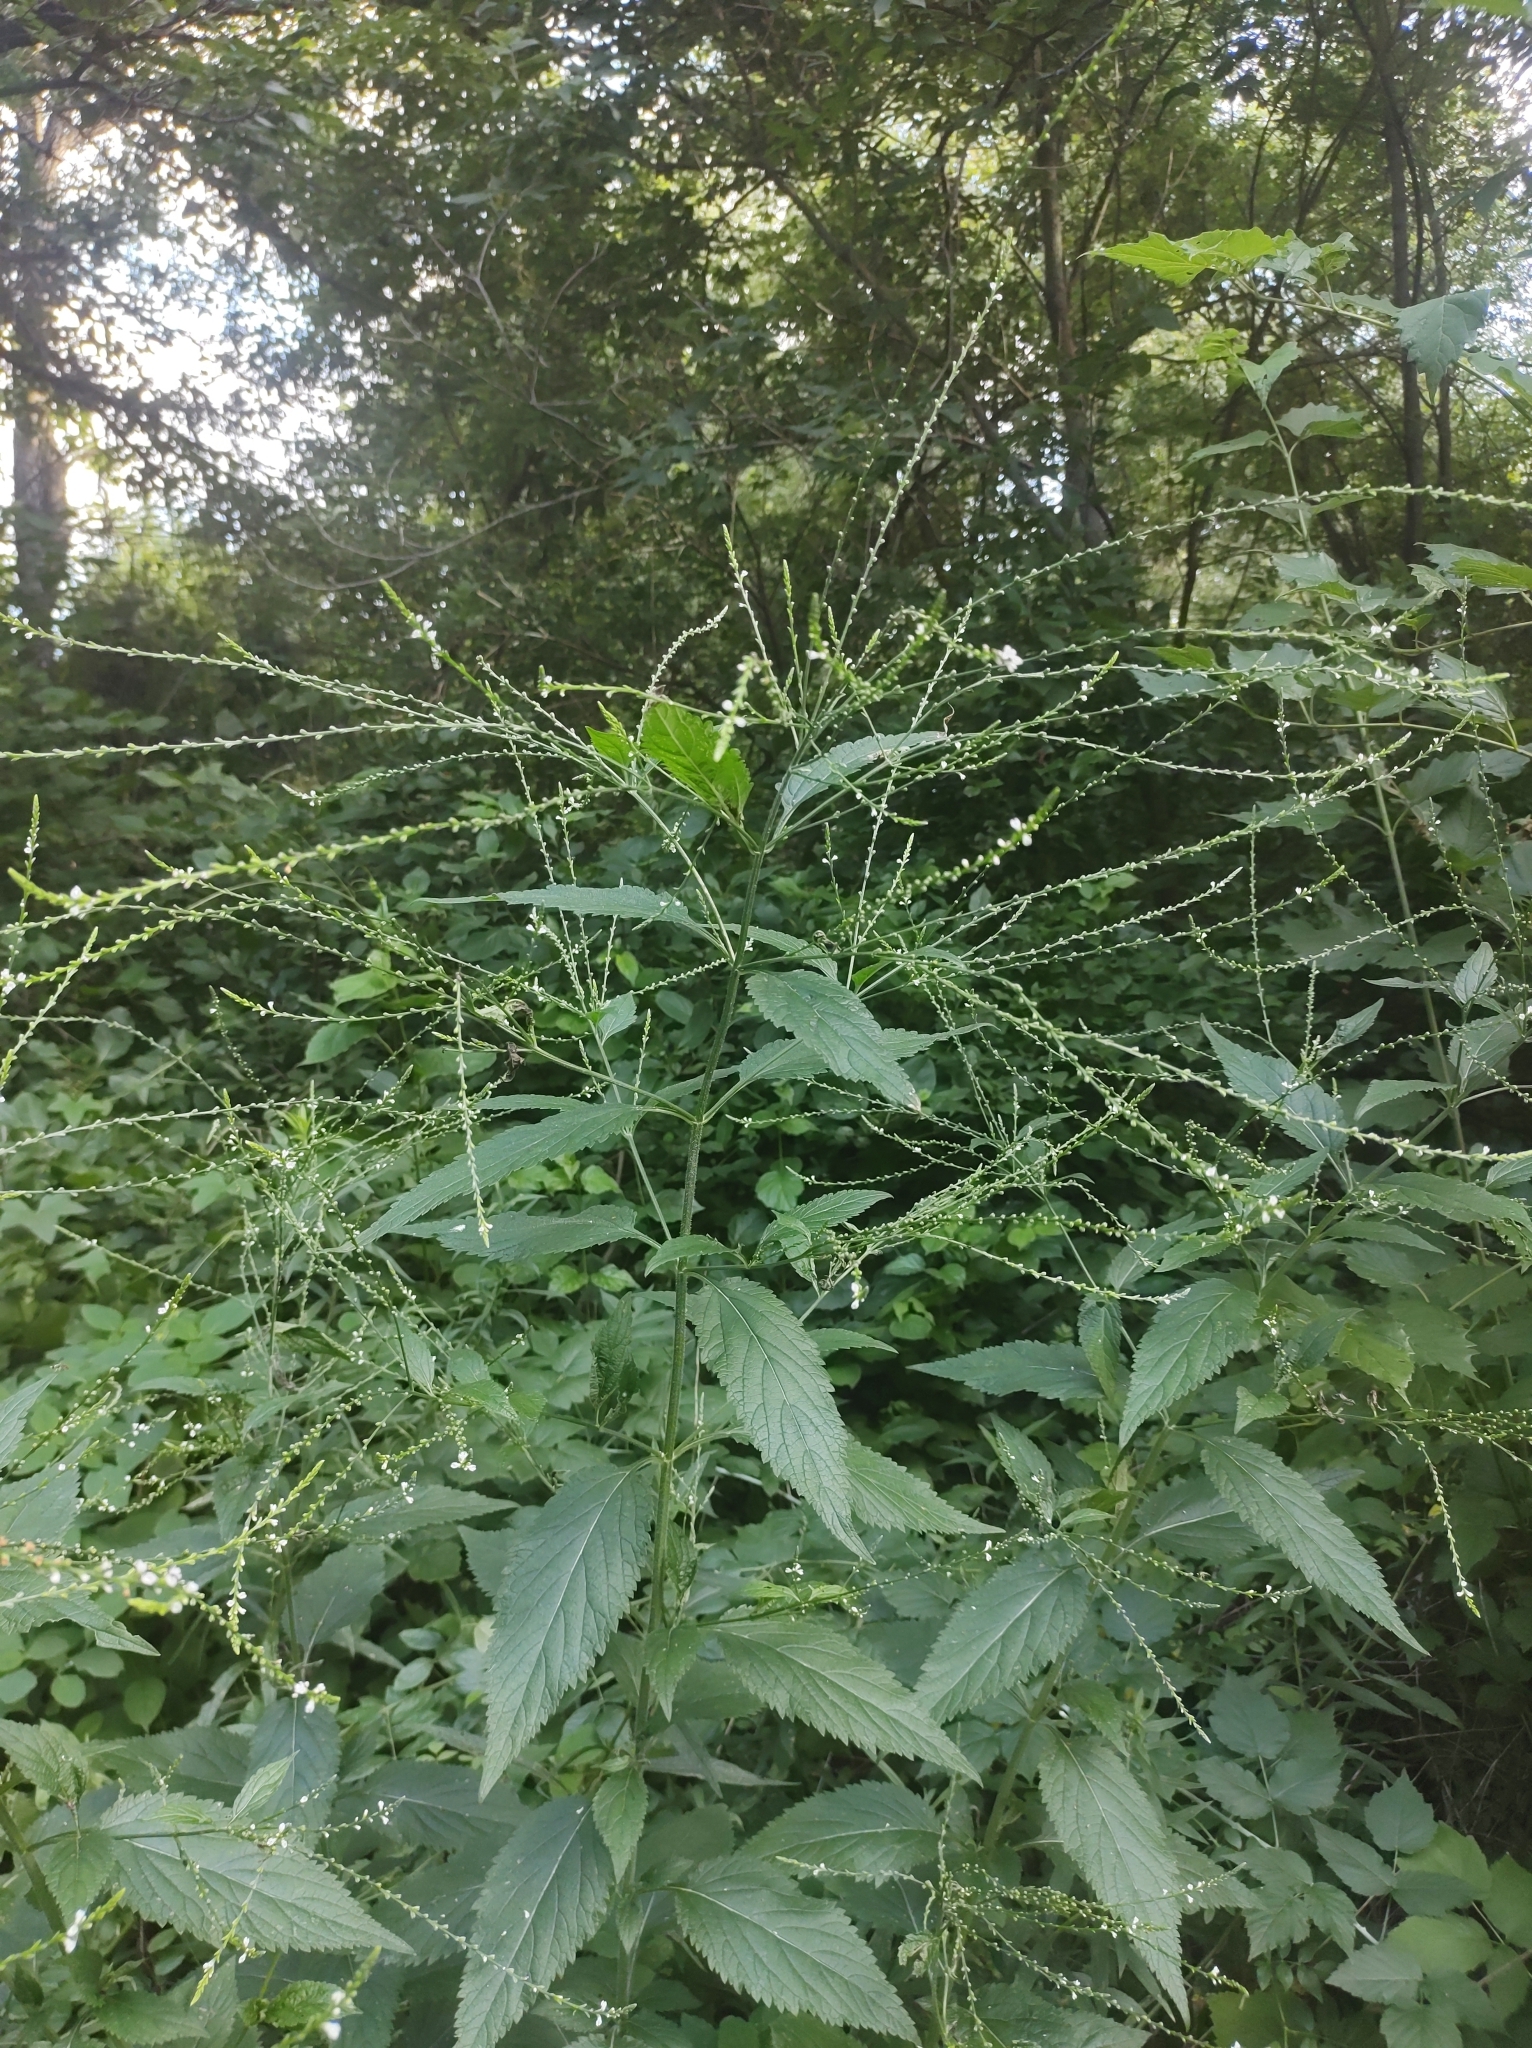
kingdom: Plantae
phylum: Tracheophyta
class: Magnoliopsida
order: Lamiales
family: Verbenaceae
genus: Verbena
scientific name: Verbena urticifolia
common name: Nettle-leaved vervain
